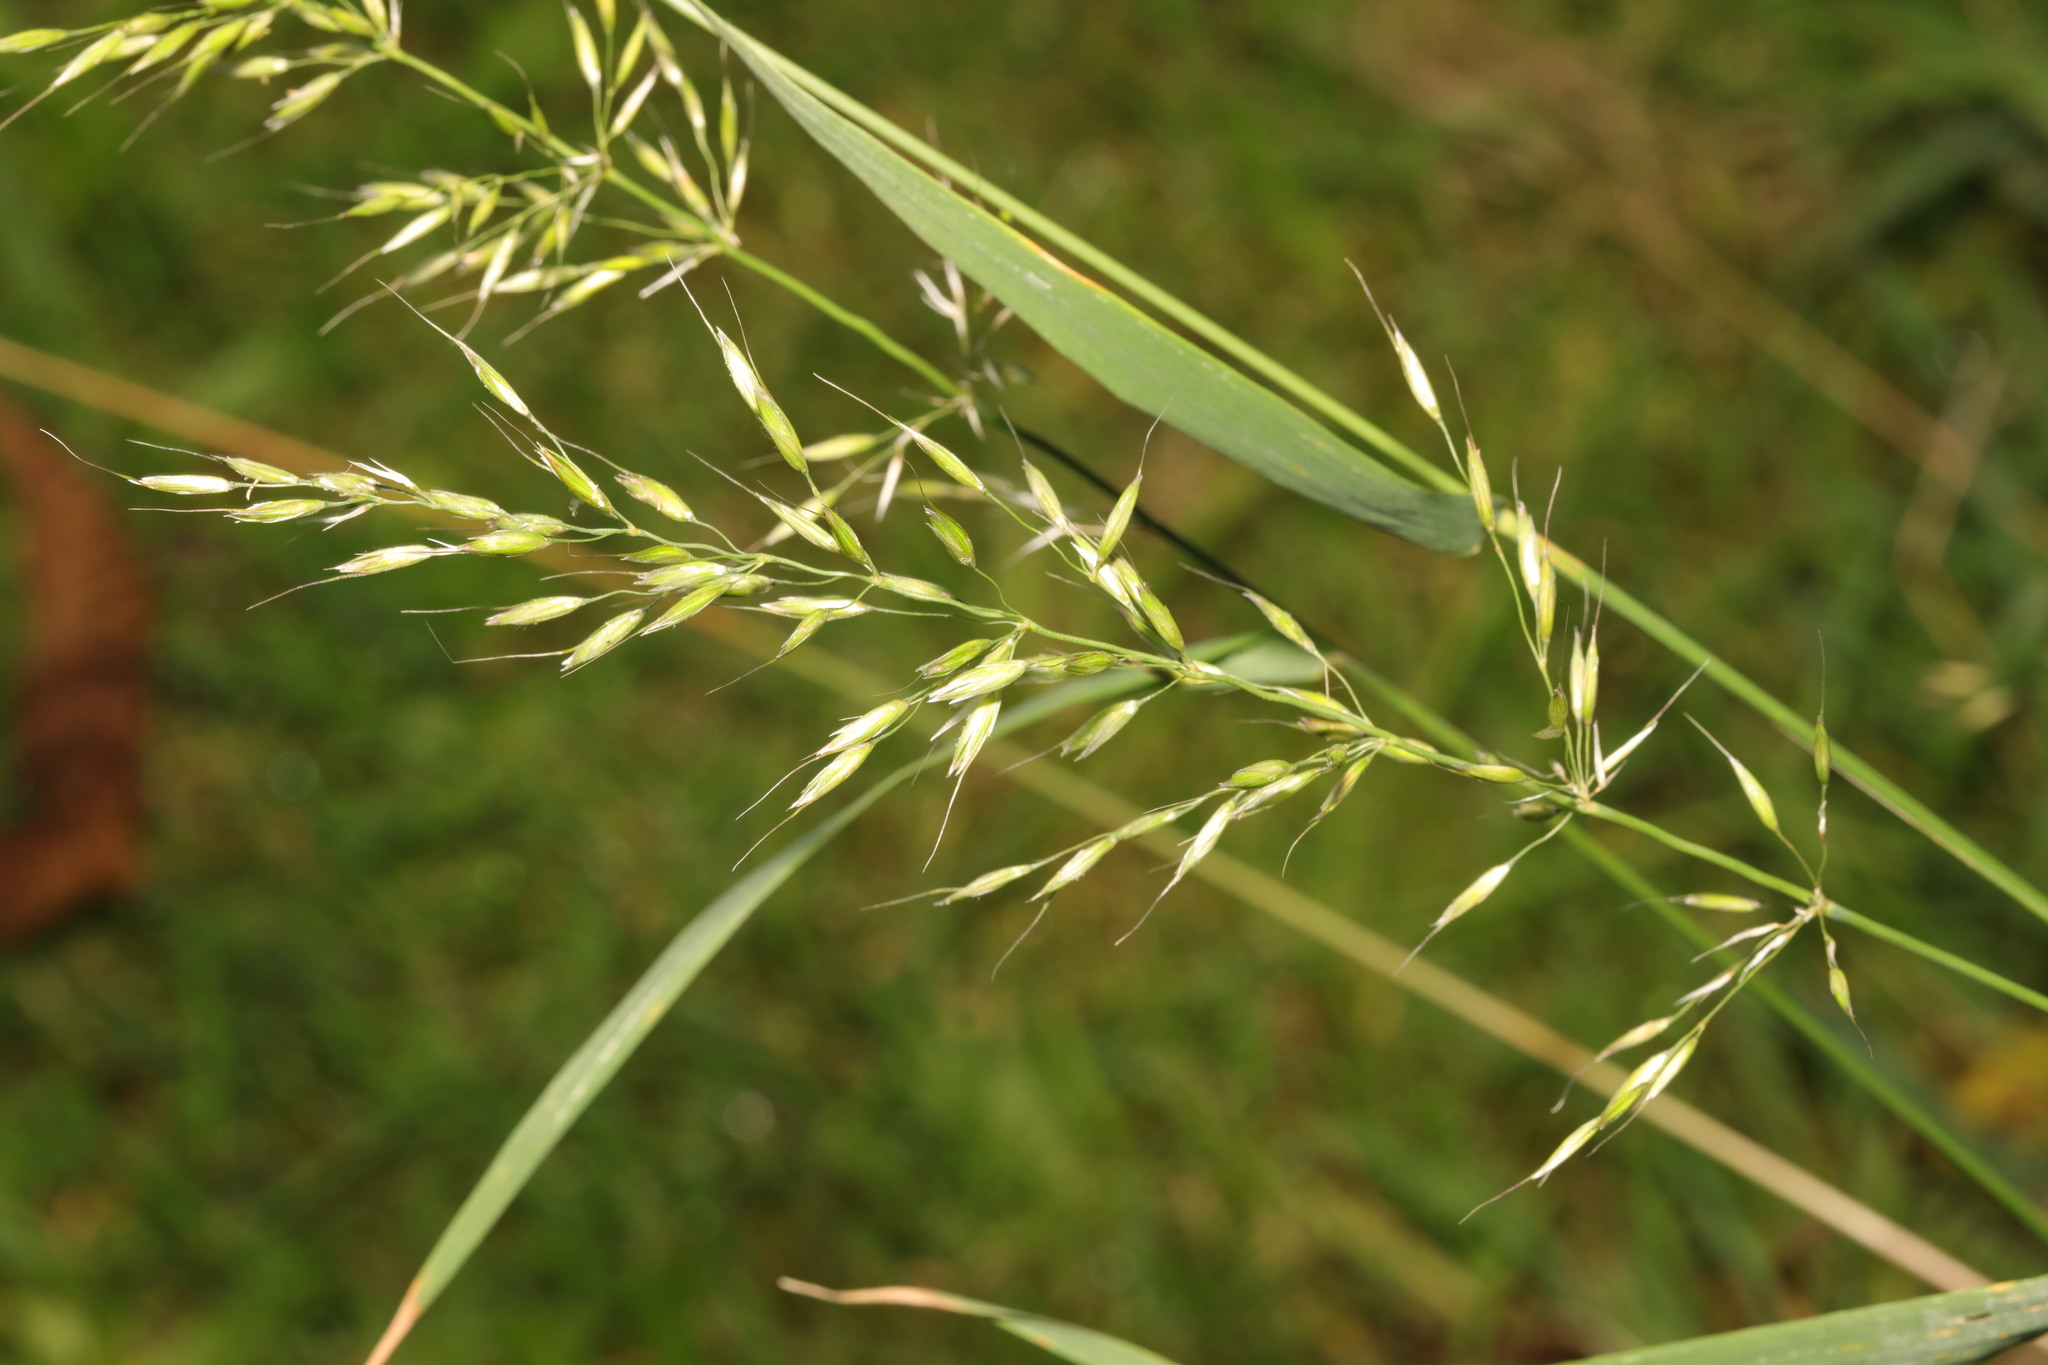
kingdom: Plantae
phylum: Tracheophyta
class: Liliopsida
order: Poales
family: Poaceae
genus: Arrhenatherum
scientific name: Arrhenatherum elatius
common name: Tall oatgrass
